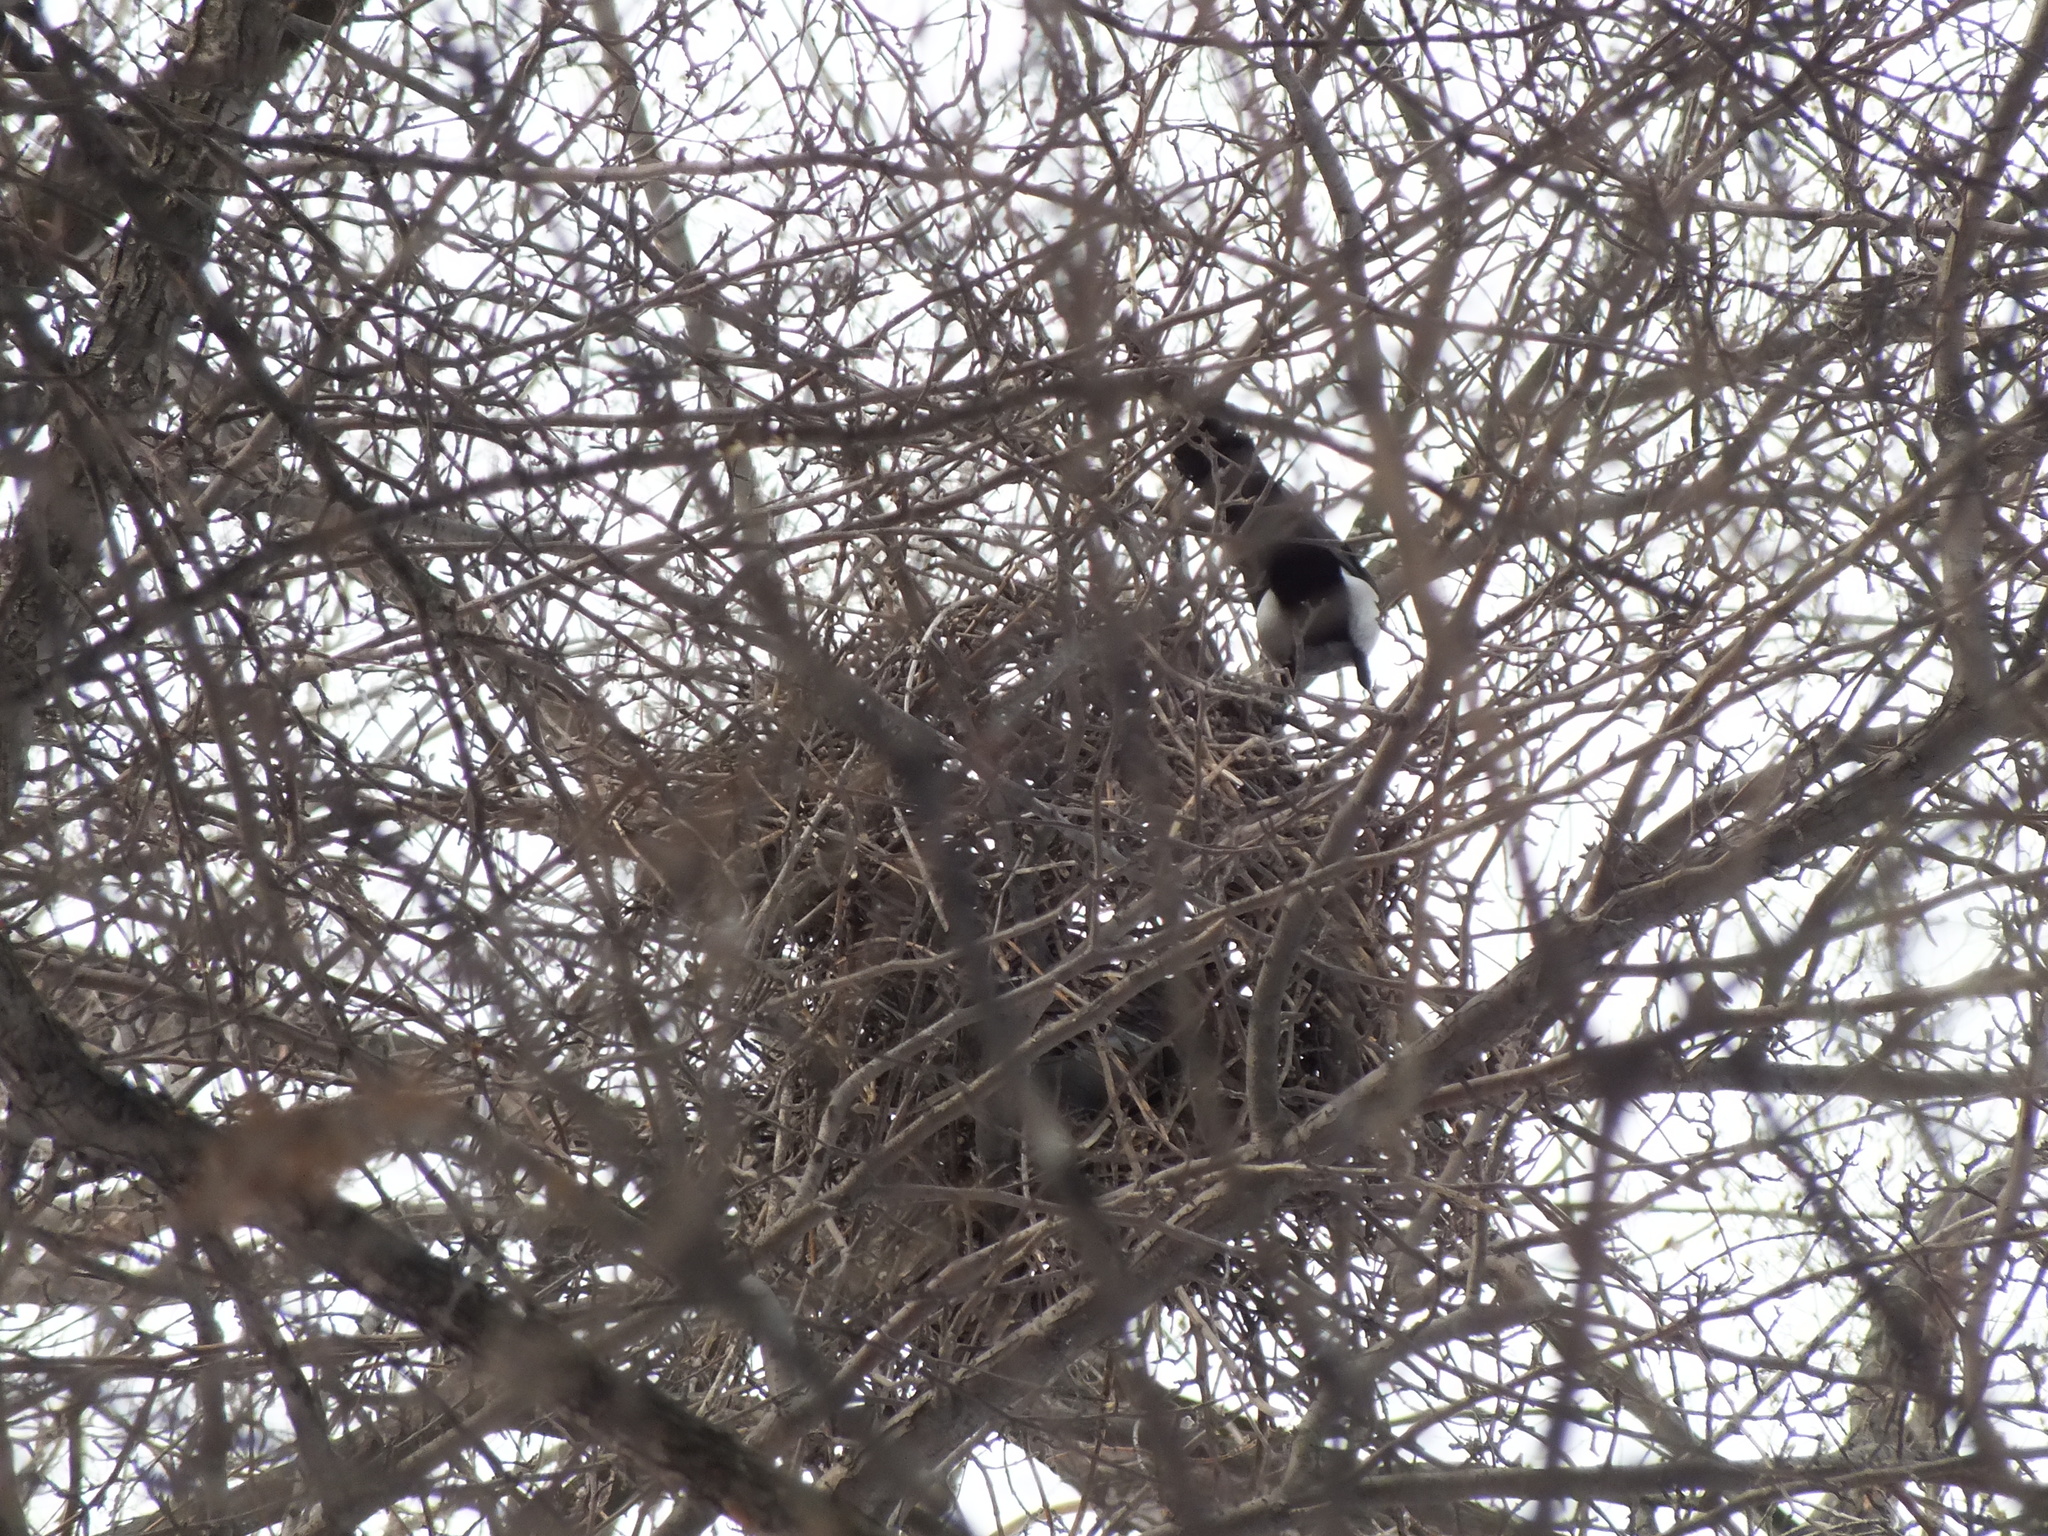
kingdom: Animalia
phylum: Chordata
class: Aves
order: Passeriformes
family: Corvidae
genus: Pica
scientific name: Pica pica
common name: Eurasian magpie
